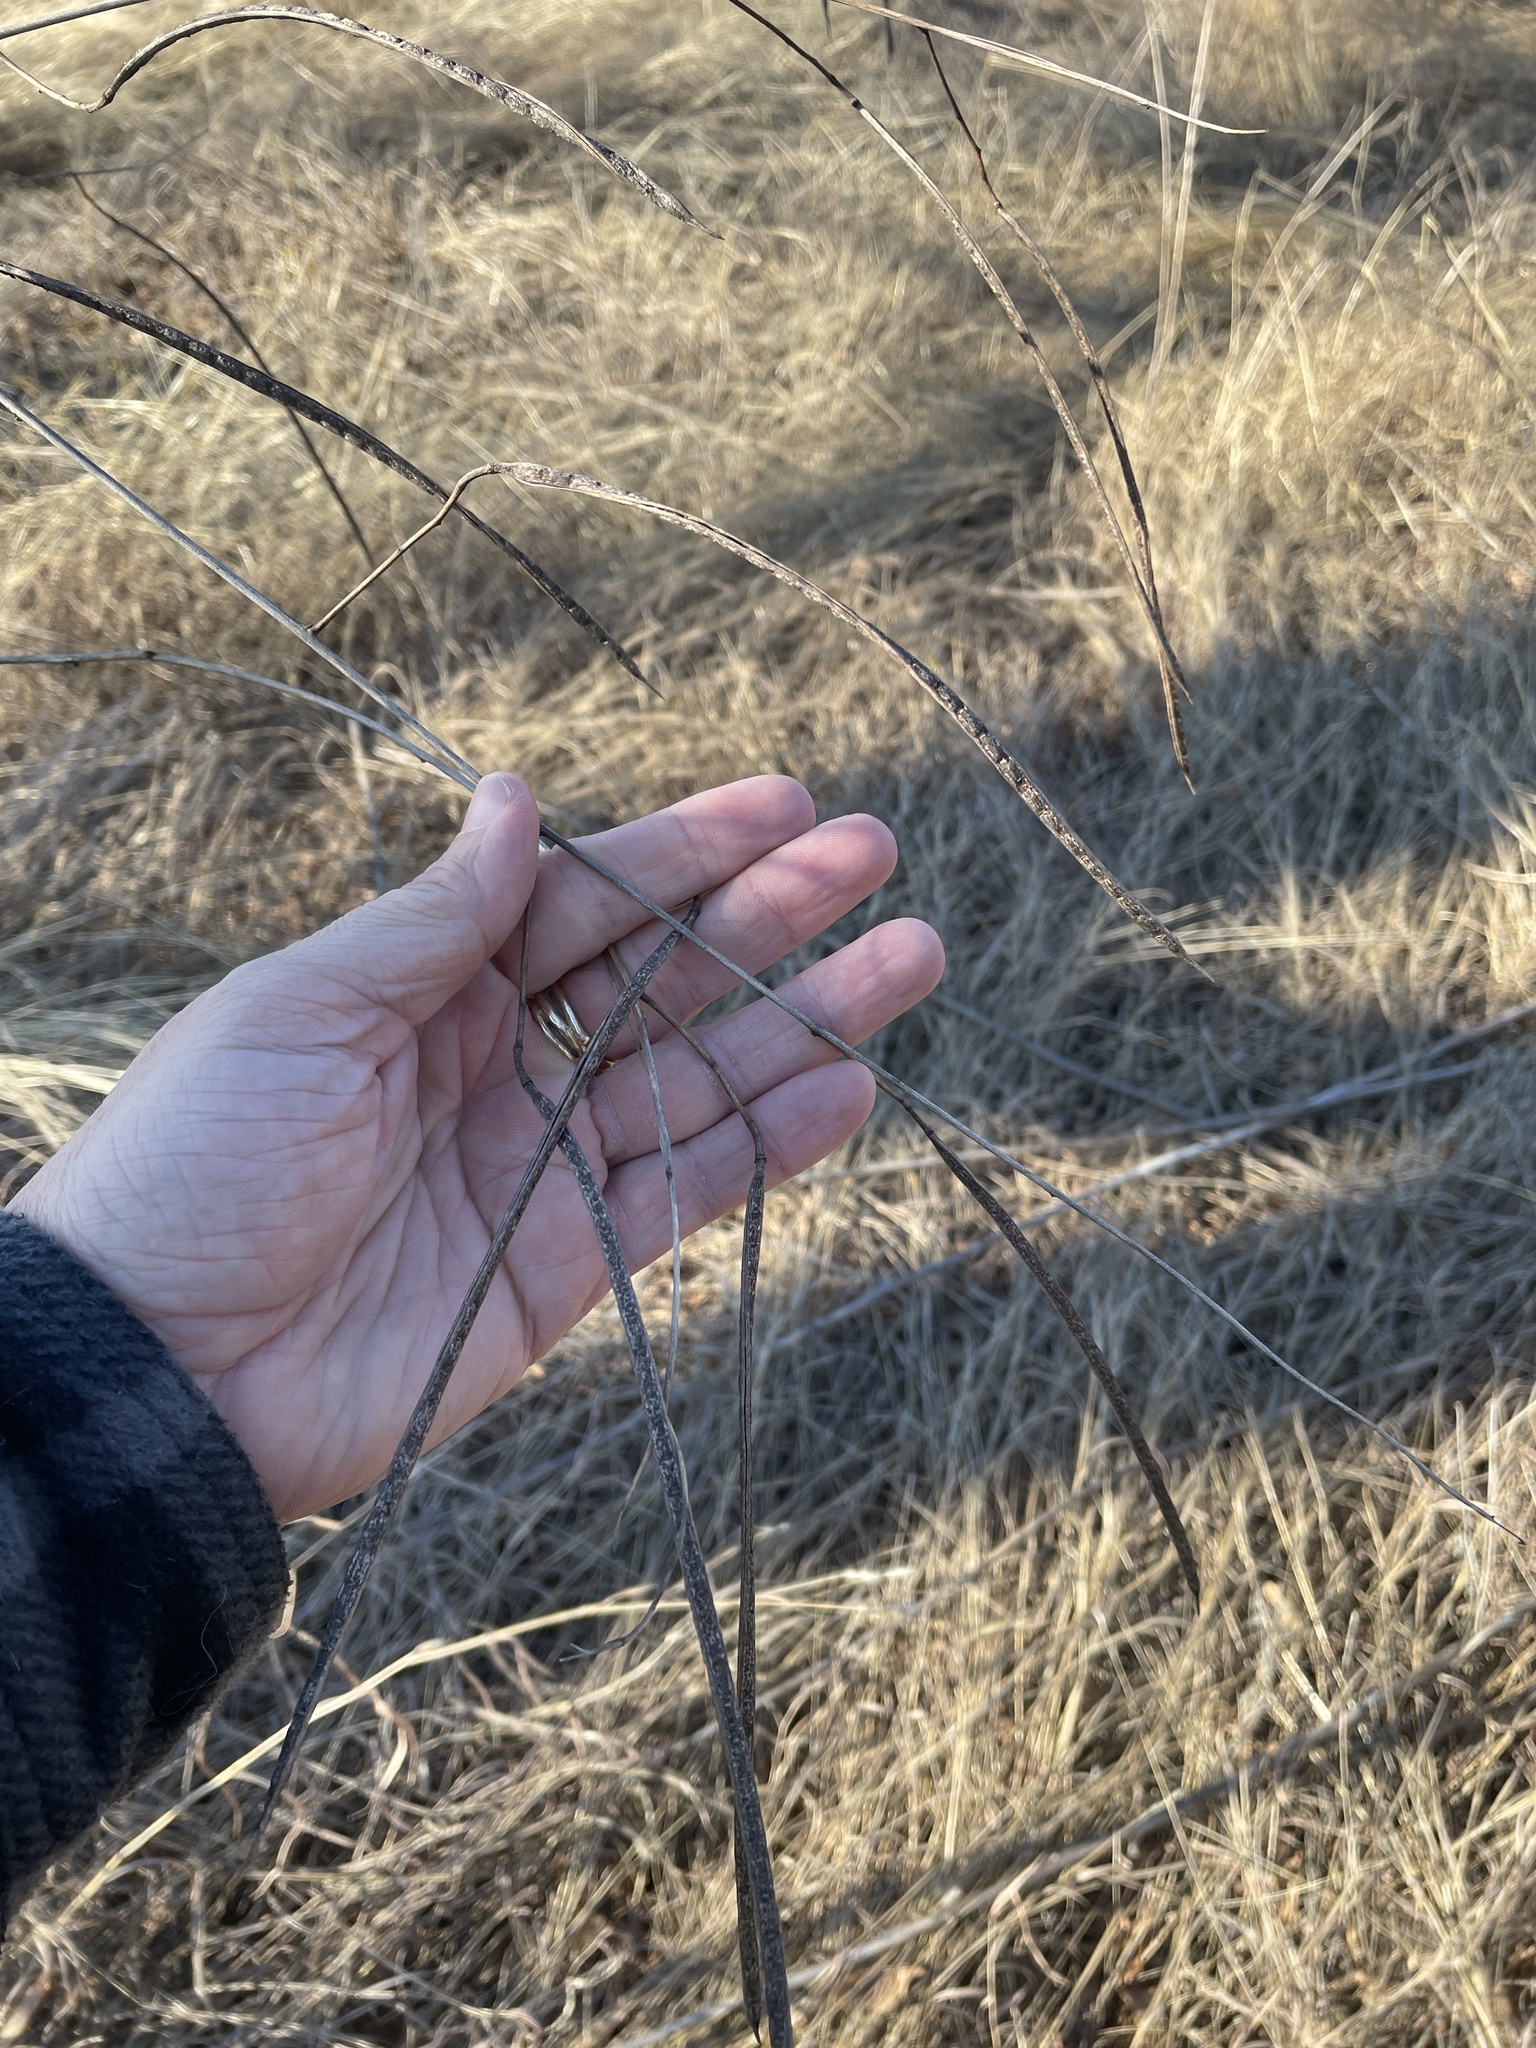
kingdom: Plantae
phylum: Tracheophyta
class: Magnoliopsida
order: Fabales
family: Fabaceae
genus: Sesbania
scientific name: Sesbania herbacea
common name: Bigpod sesbania
